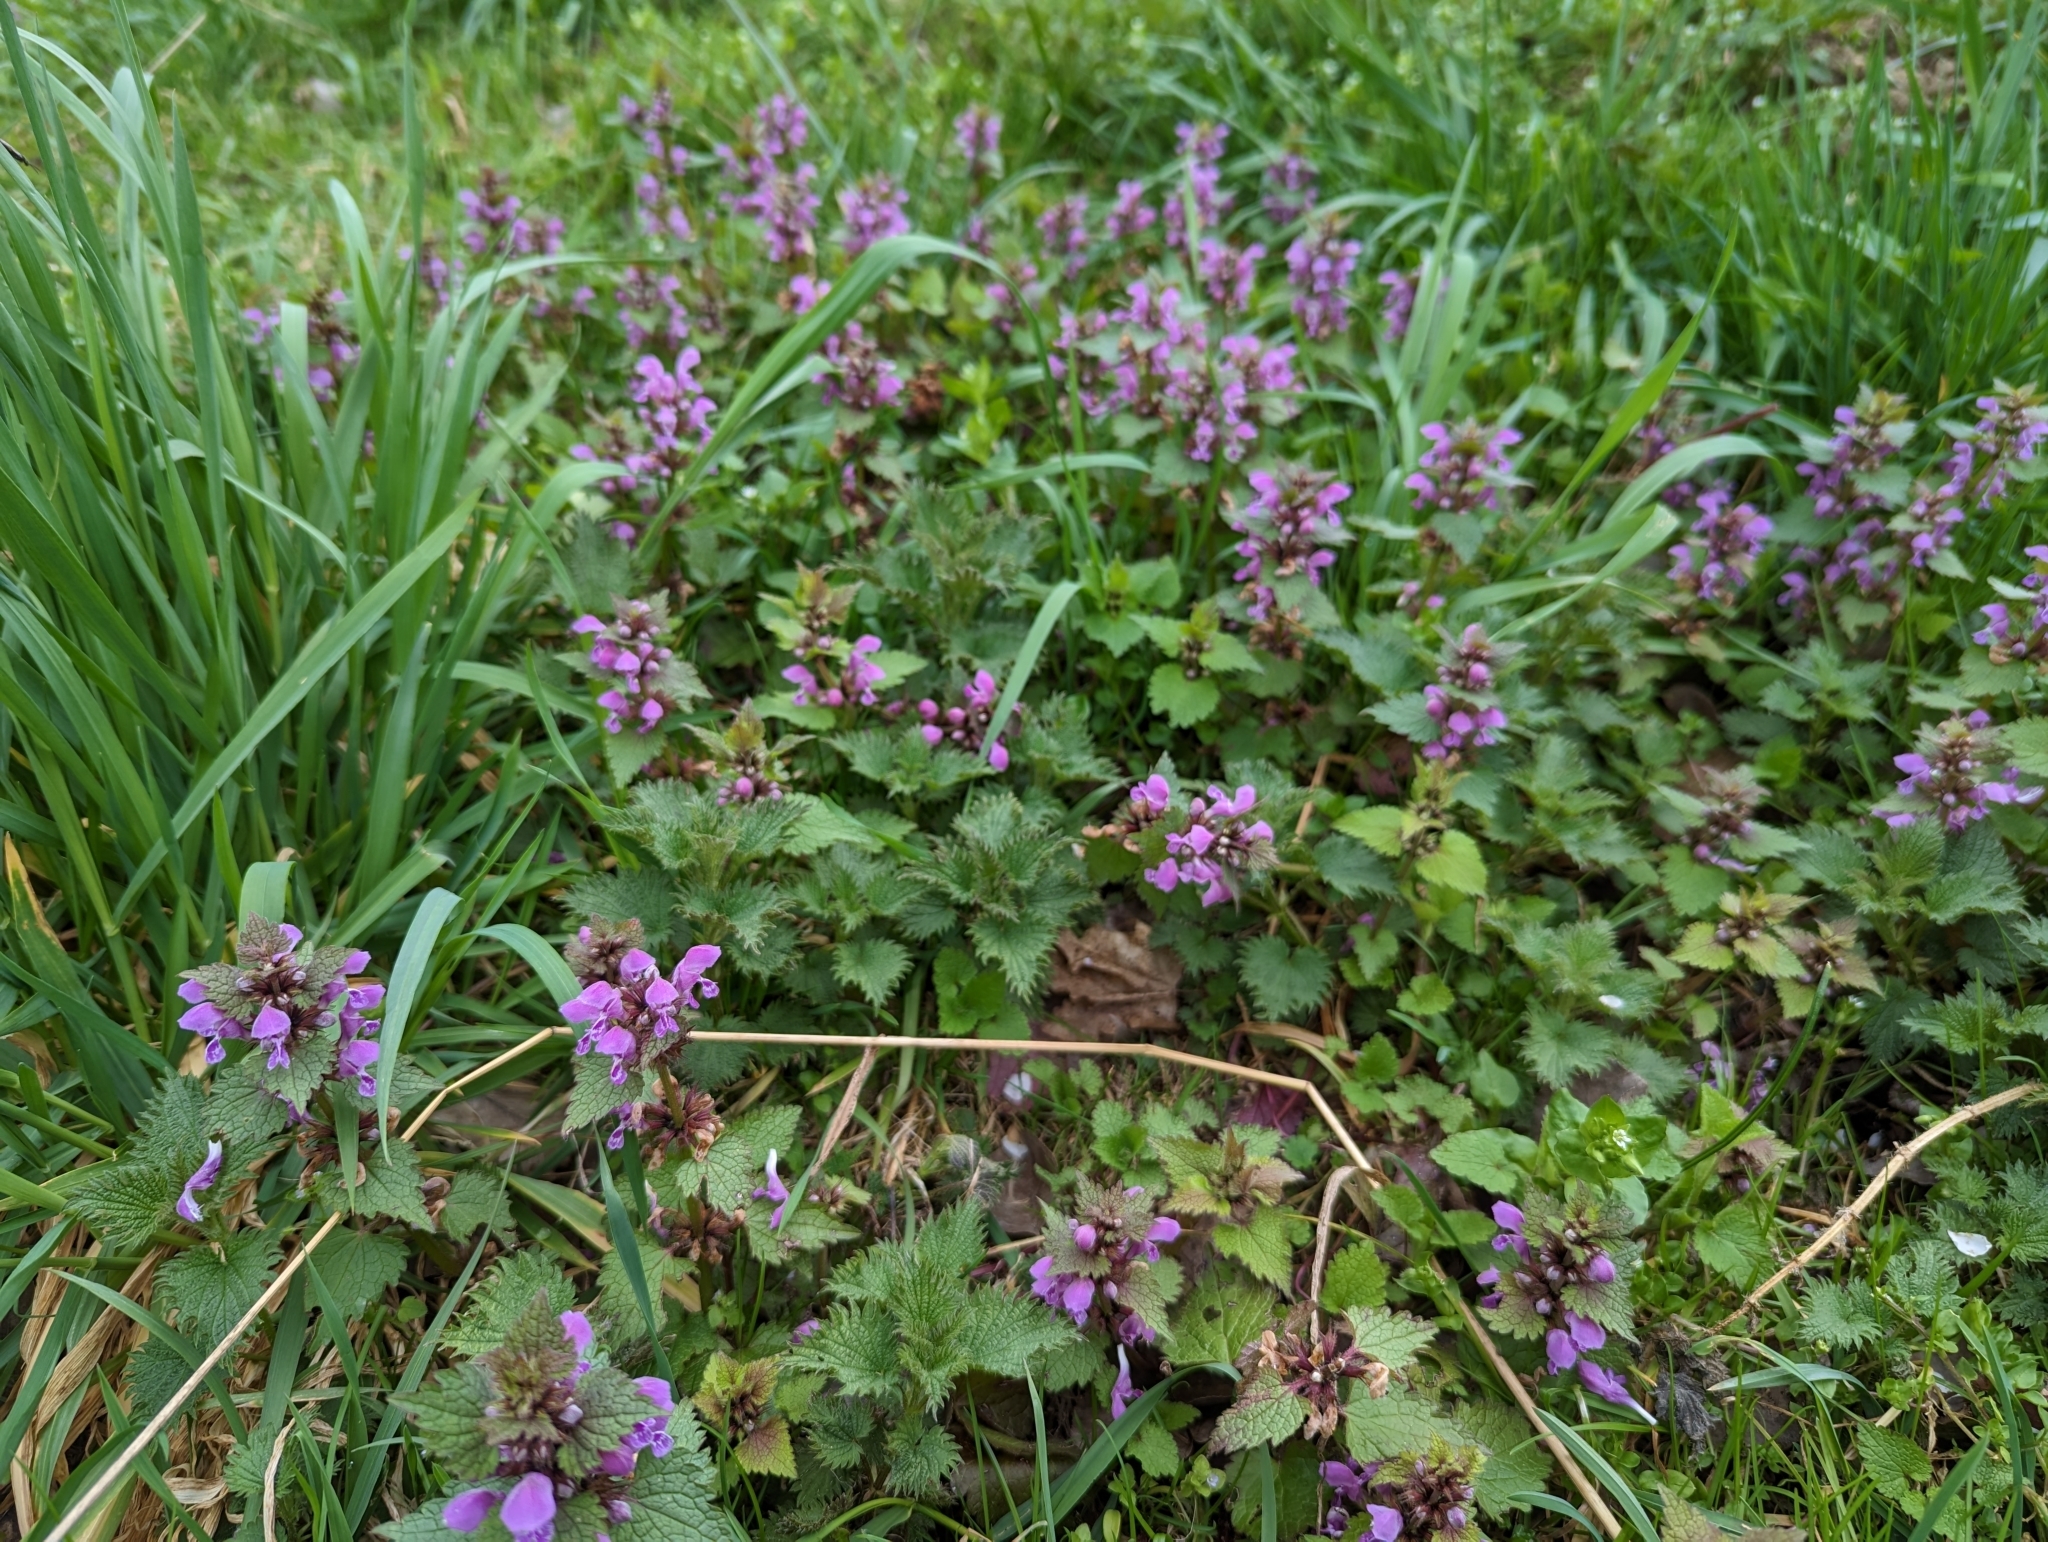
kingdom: Plantae
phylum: Tracheophyta
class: Magnoliopsida
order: Lamiales
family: Lamiaceae
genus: Lamium
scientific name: Lamium maculatum
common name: Spotted dead-nettle
